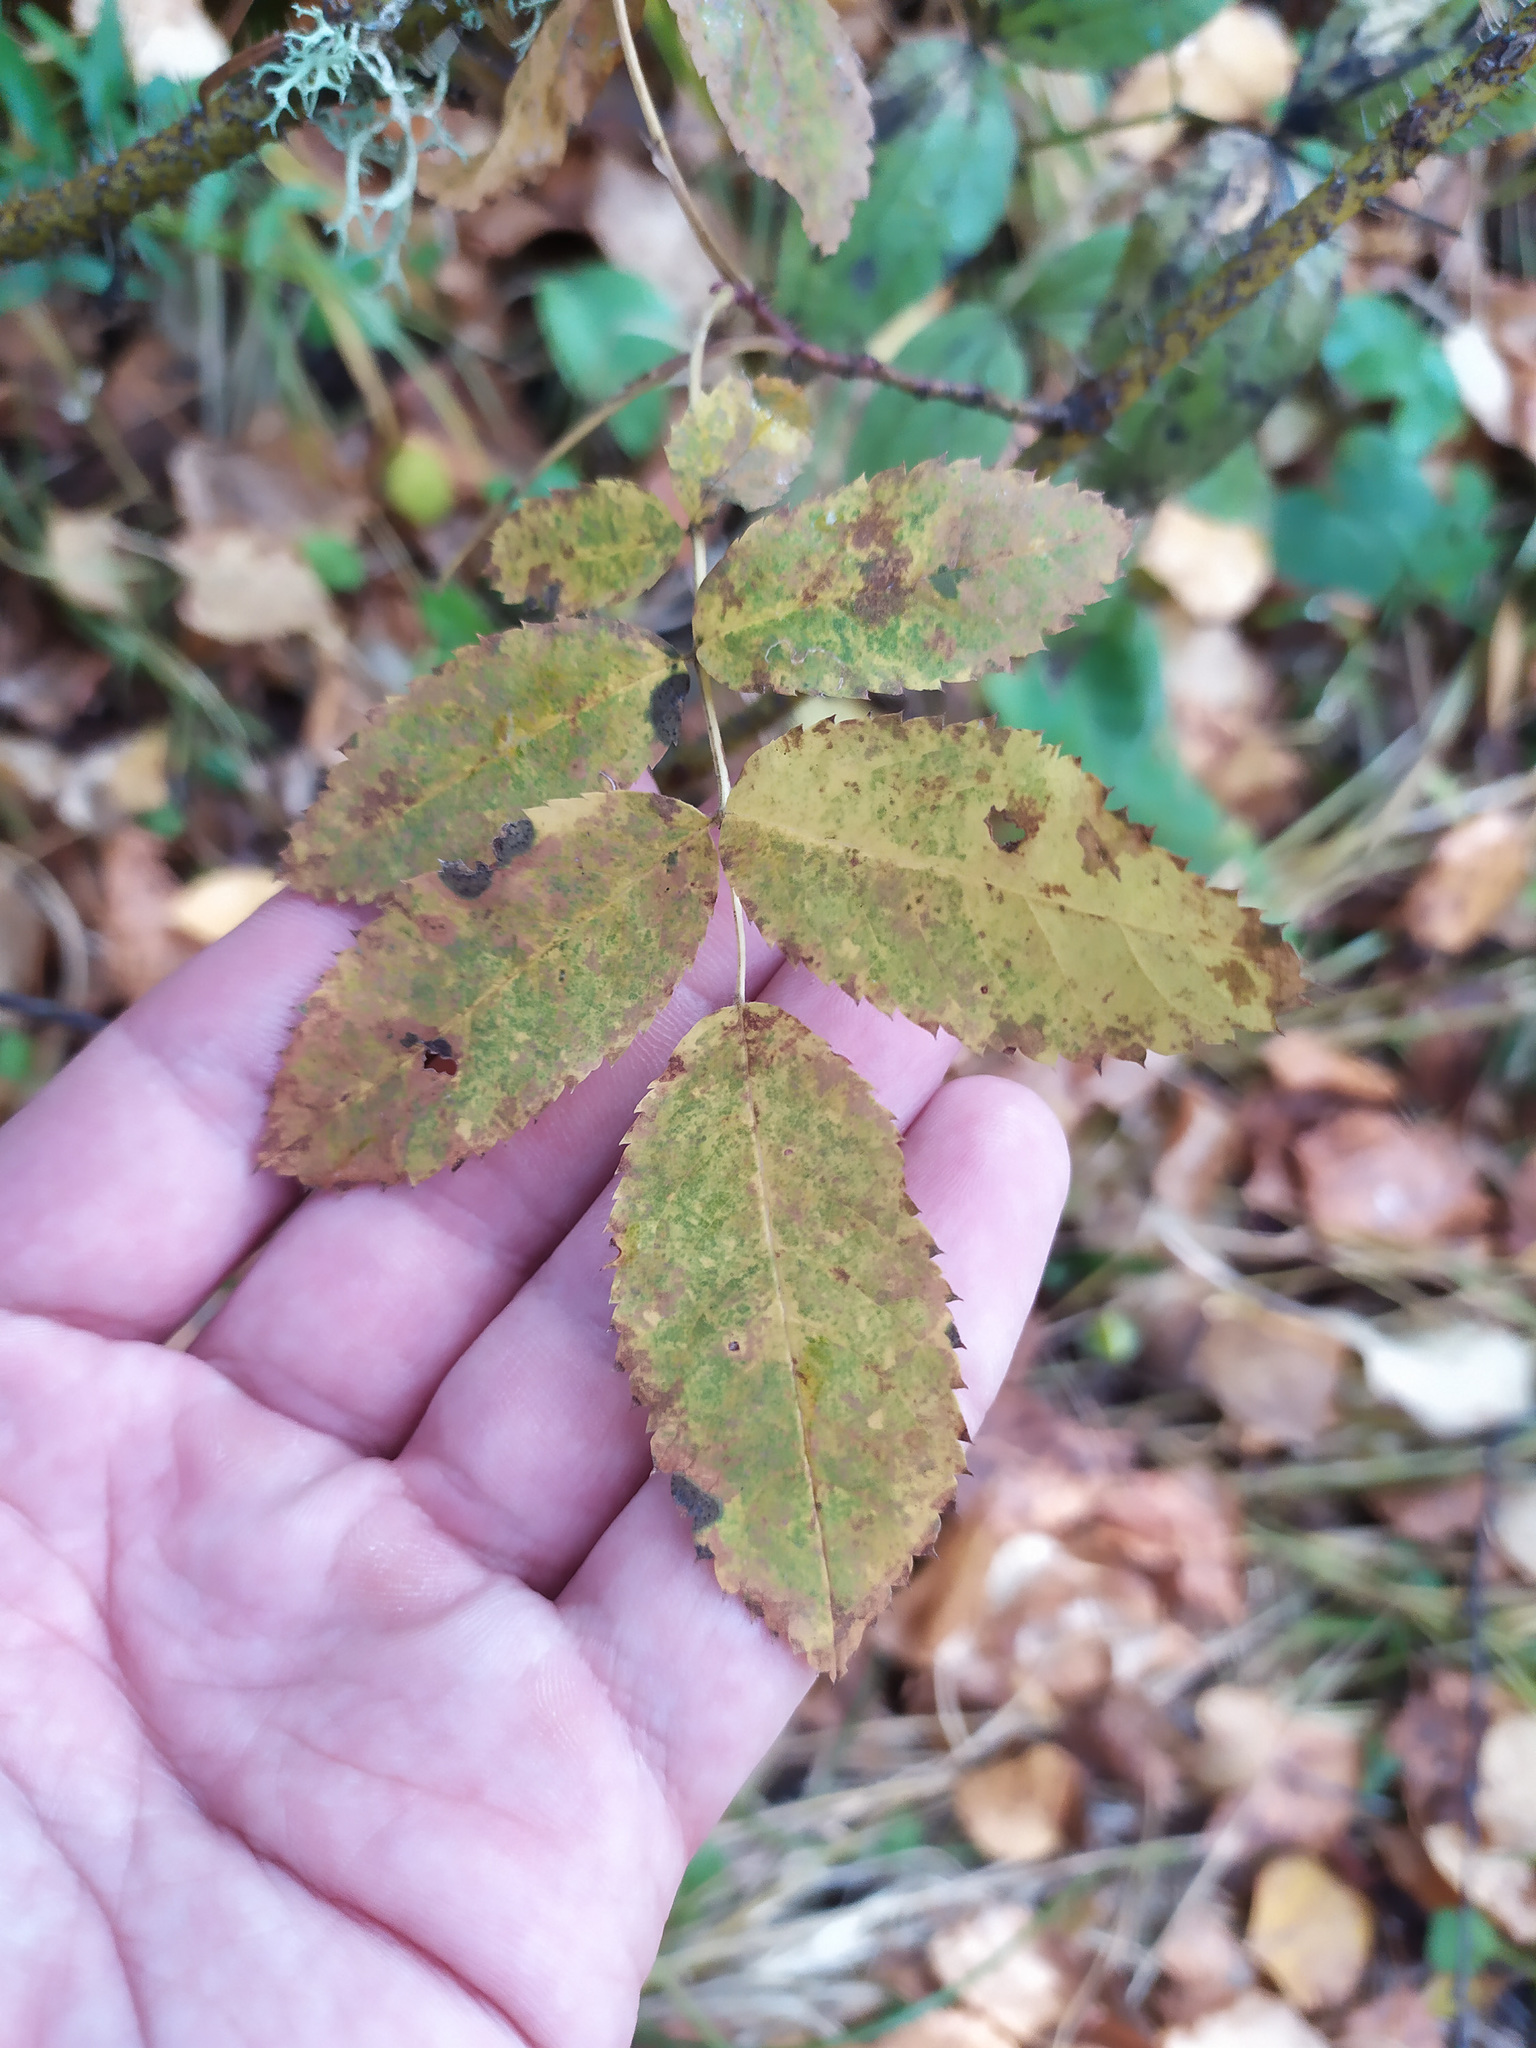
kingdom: Plantae
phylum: Tracheophyta
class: Magnoliopsida
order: Rosales
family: Rosaceae
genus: Rosa
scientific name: Rosa
